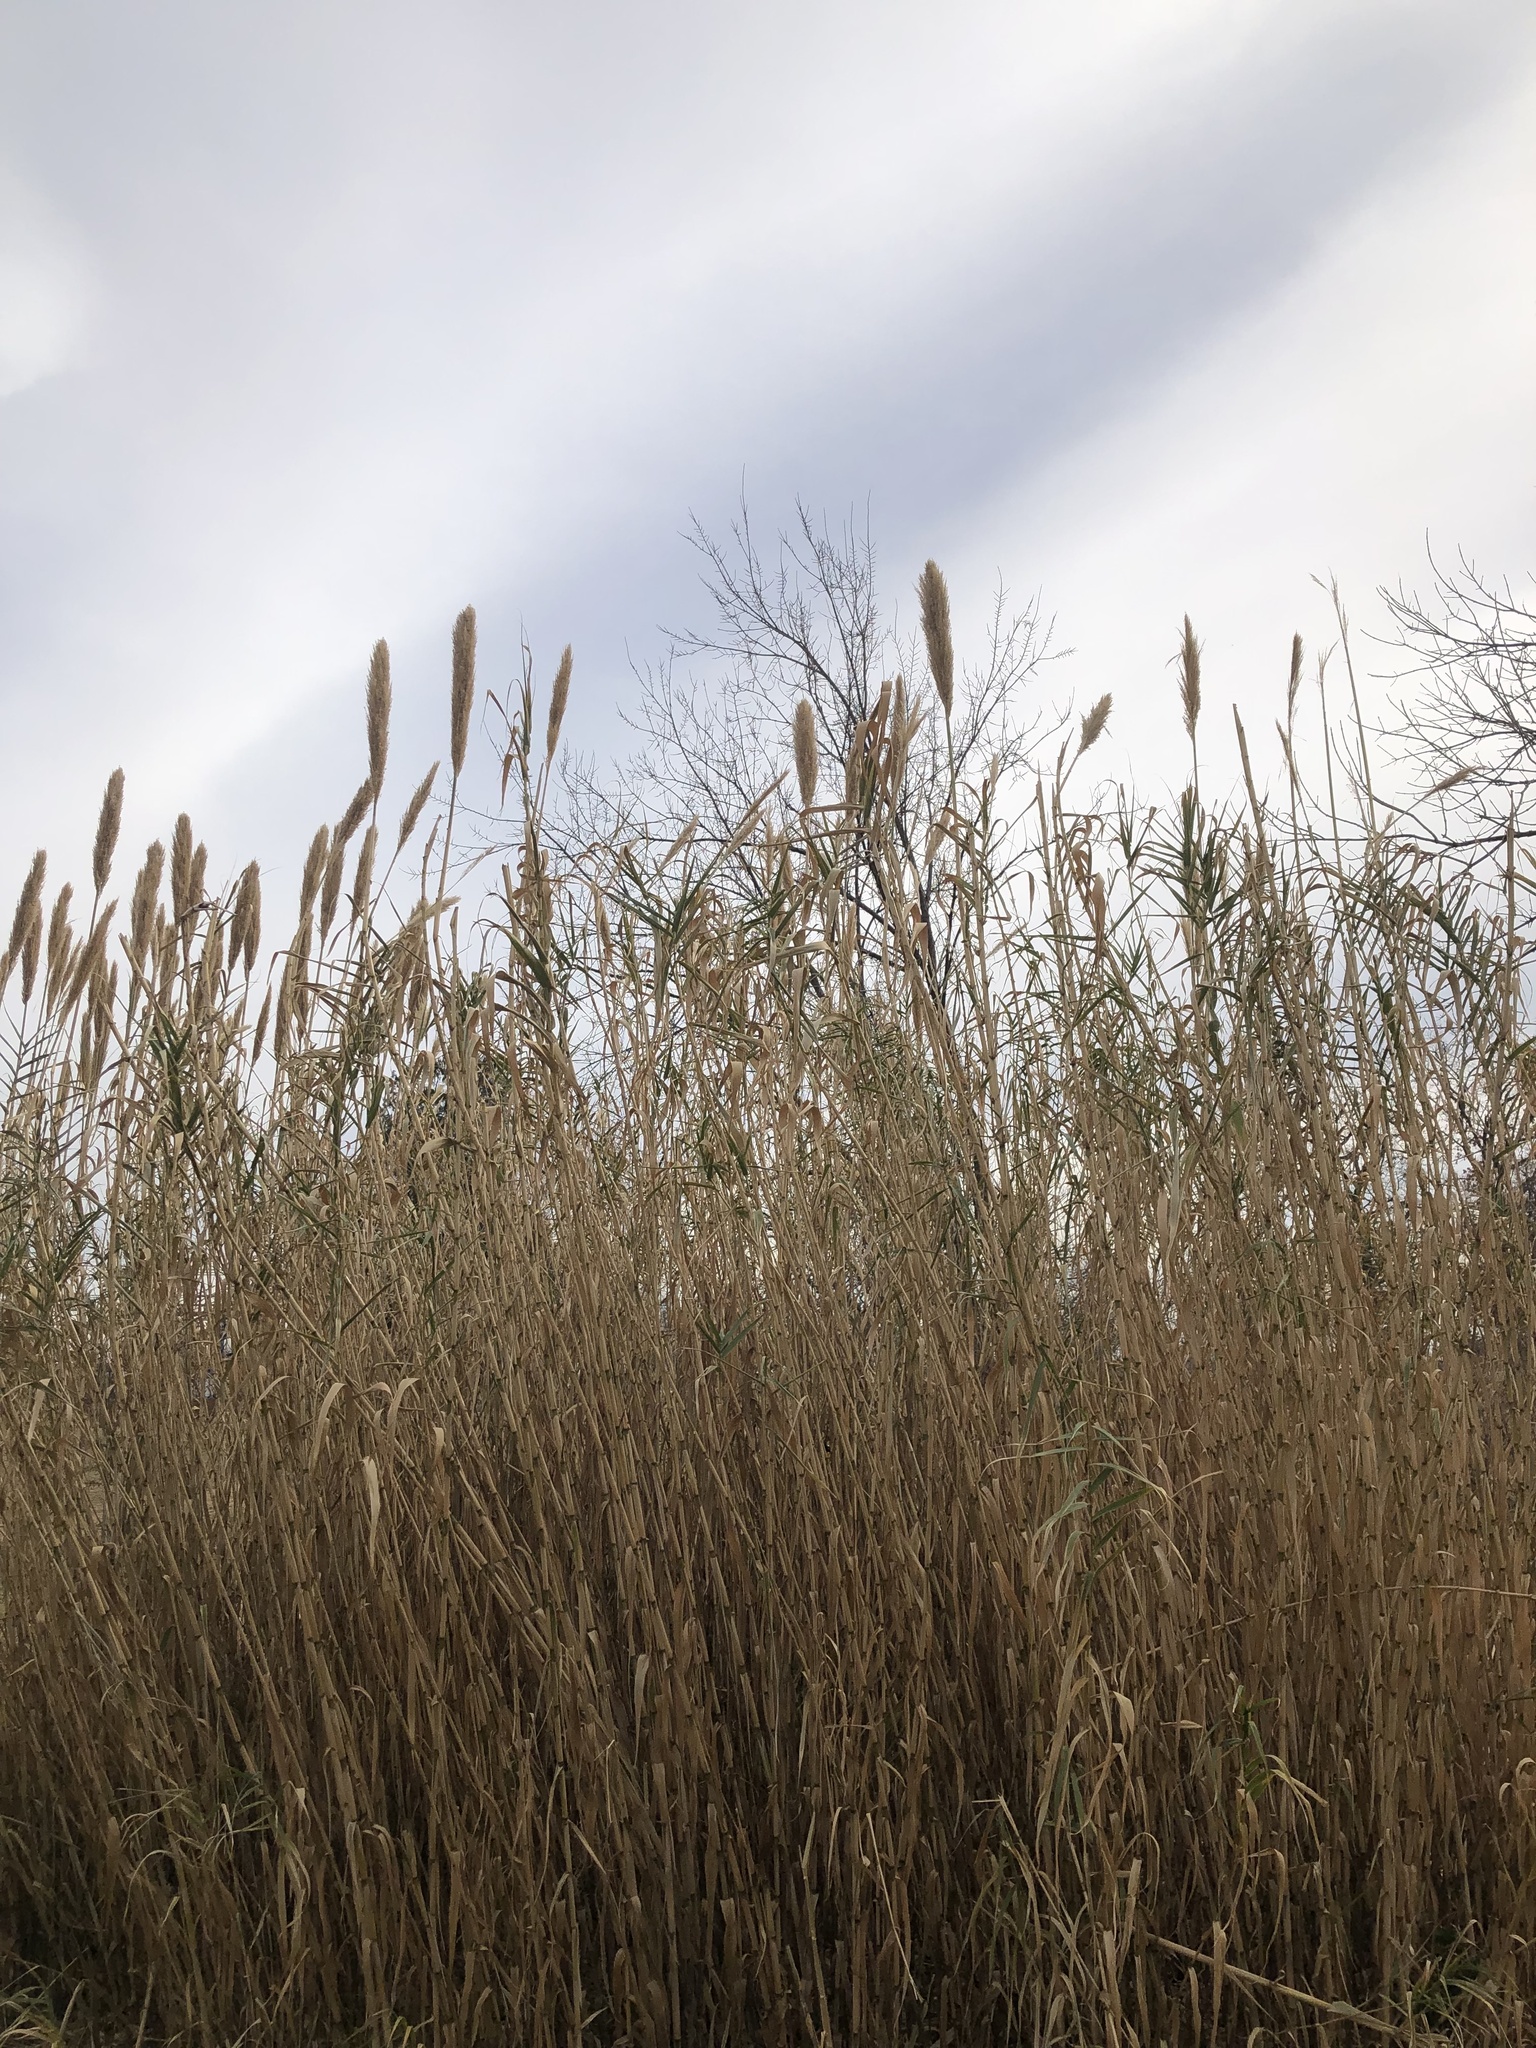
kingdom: Plantae
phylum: Tracheophyta
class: Liliopsida
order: Poales
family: Poaceae
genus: Arundo
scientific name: Arundo donax
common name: Giant reed
